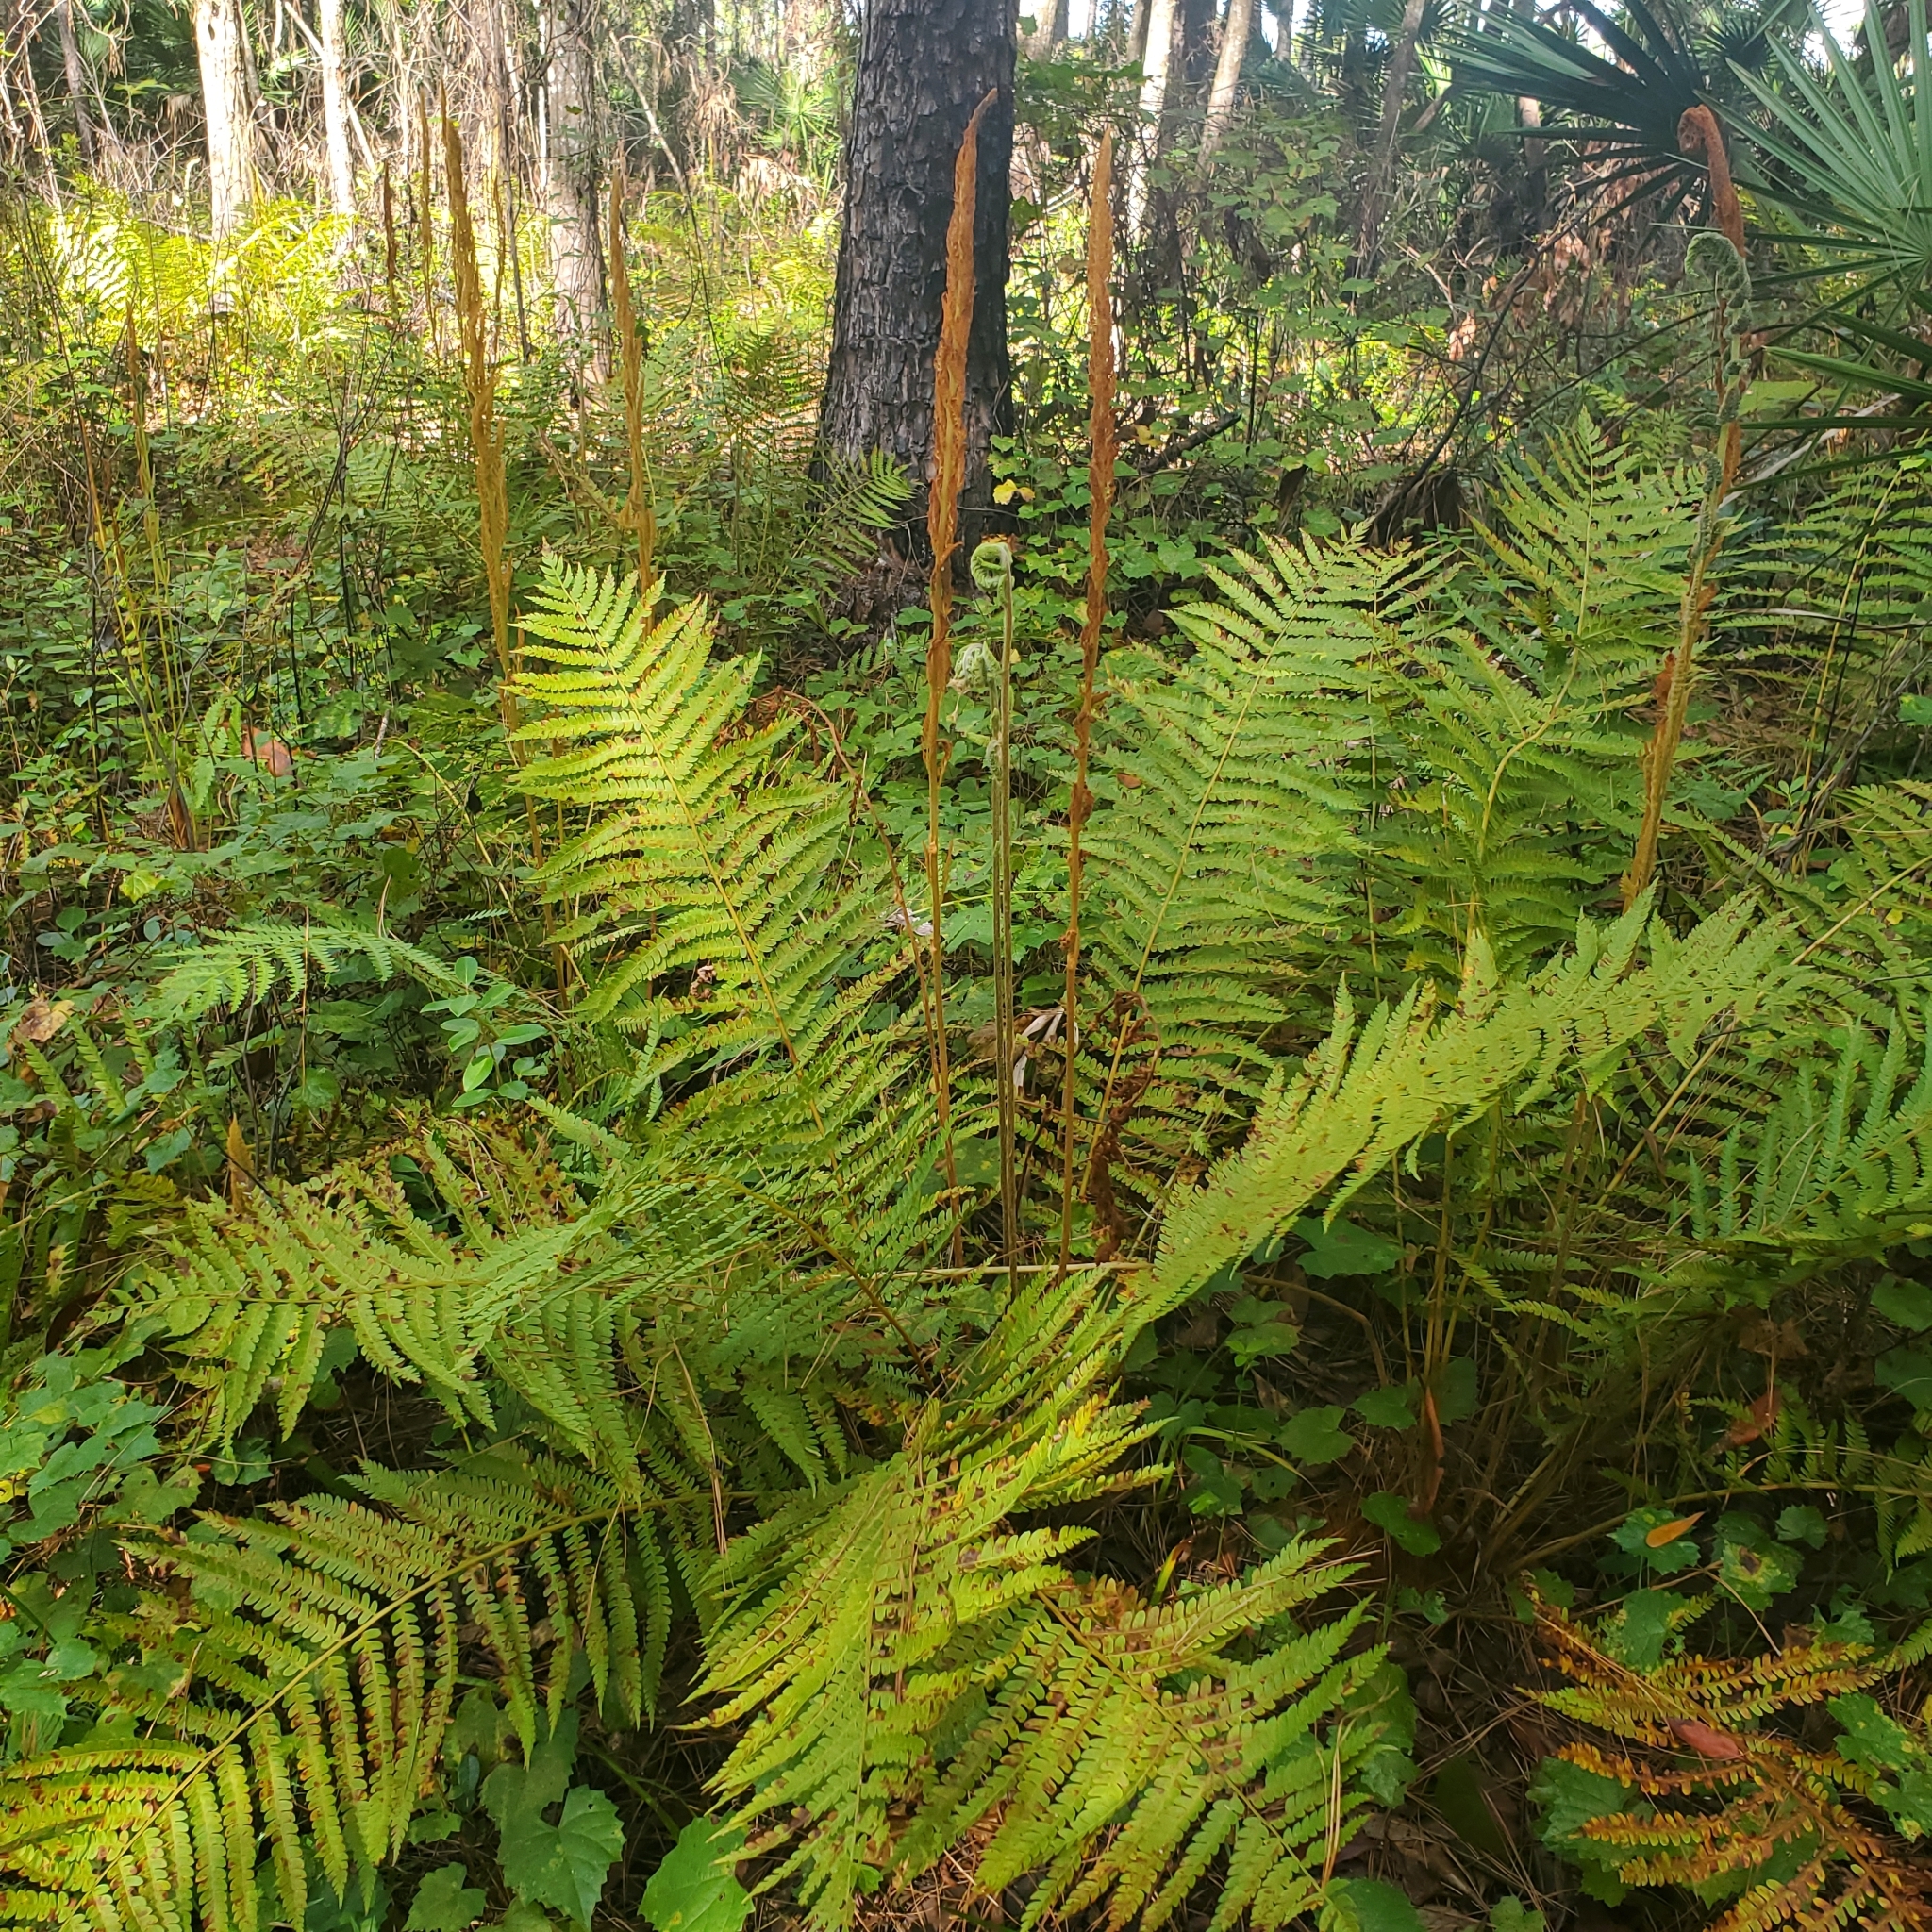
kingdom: Plantae
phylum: Tracheophyta
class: Polypodiopsida
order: Osmundales
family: Osmundaceae
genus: Osmundastrum
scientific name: Osmundastrum cinnamomeum
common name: Cinnamon fern
